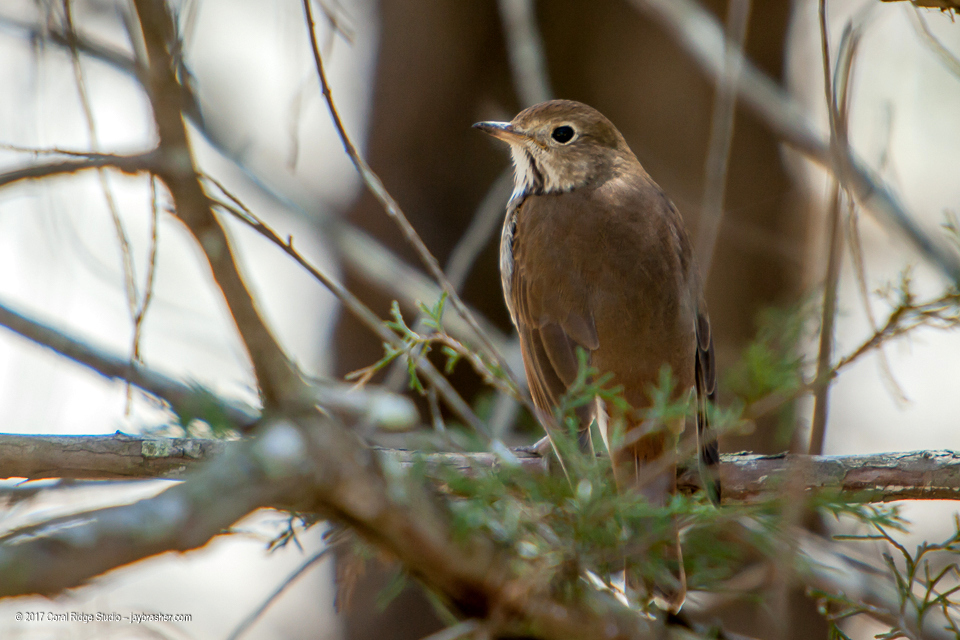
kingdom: Animalia
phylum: Chordata
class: Aves
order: Passeriformes
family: Turdidae
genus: Catharus
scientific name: Catharus guttatus
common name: Hermit thrush
